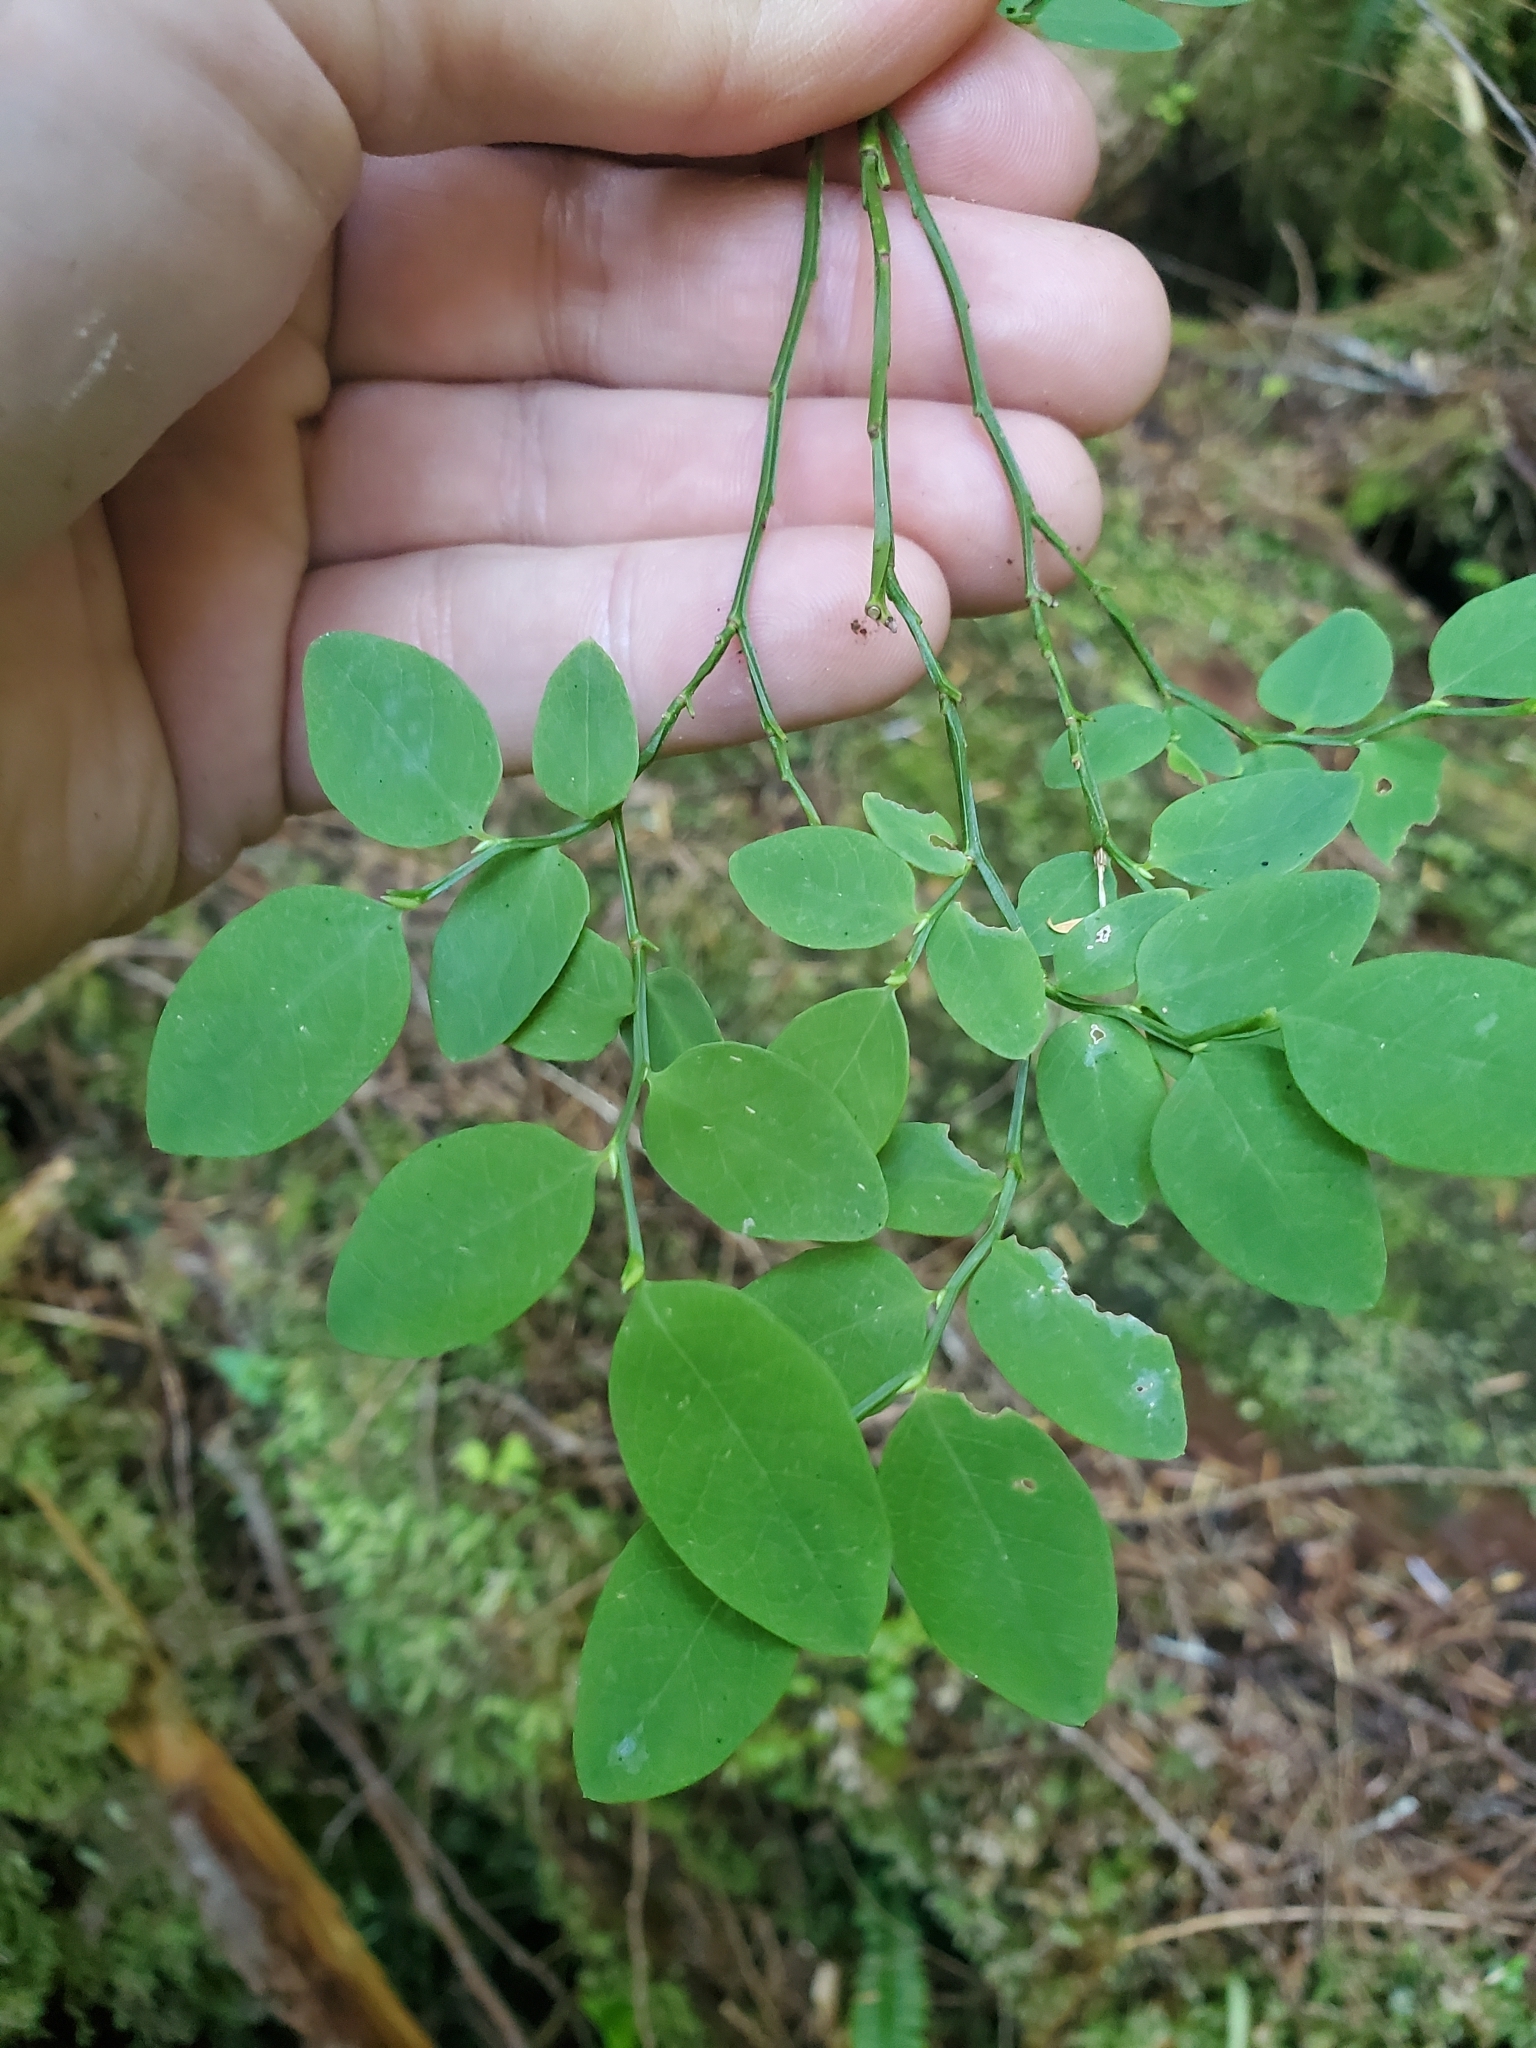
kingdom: Plantae
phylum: Tracheophyta
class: Magnoliopsida
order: Ericales
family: Ericaceae
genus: Vaccinium
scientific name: Vaccinium parvifolium
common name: Red-huckleberry
